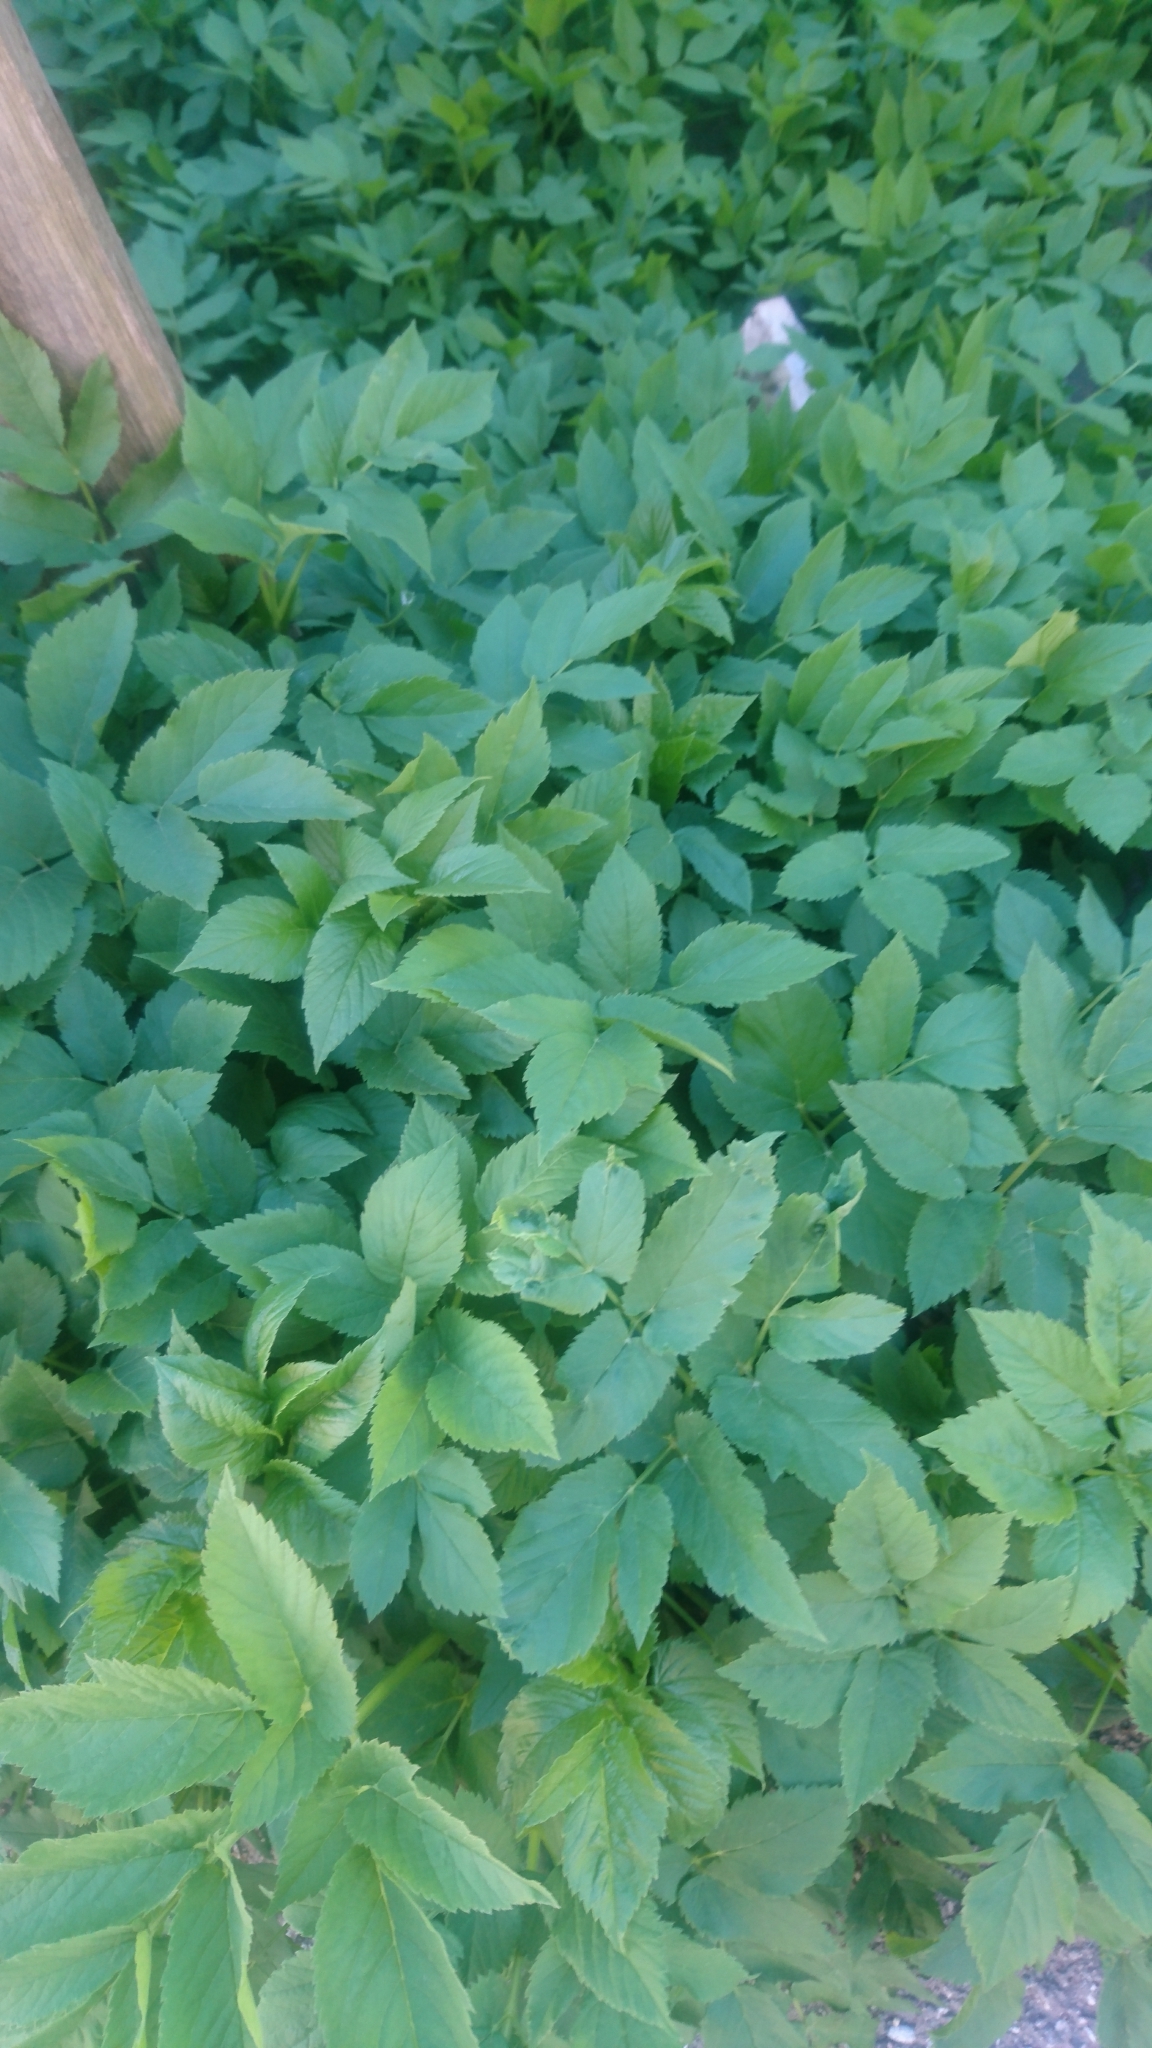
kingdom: Plantae
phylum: Tracheophyta
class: Magnoliopsida
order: Apiales
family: Apiaceae
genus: Aegopodium
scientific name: Aegopodium podagraria
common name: Ground-elder
